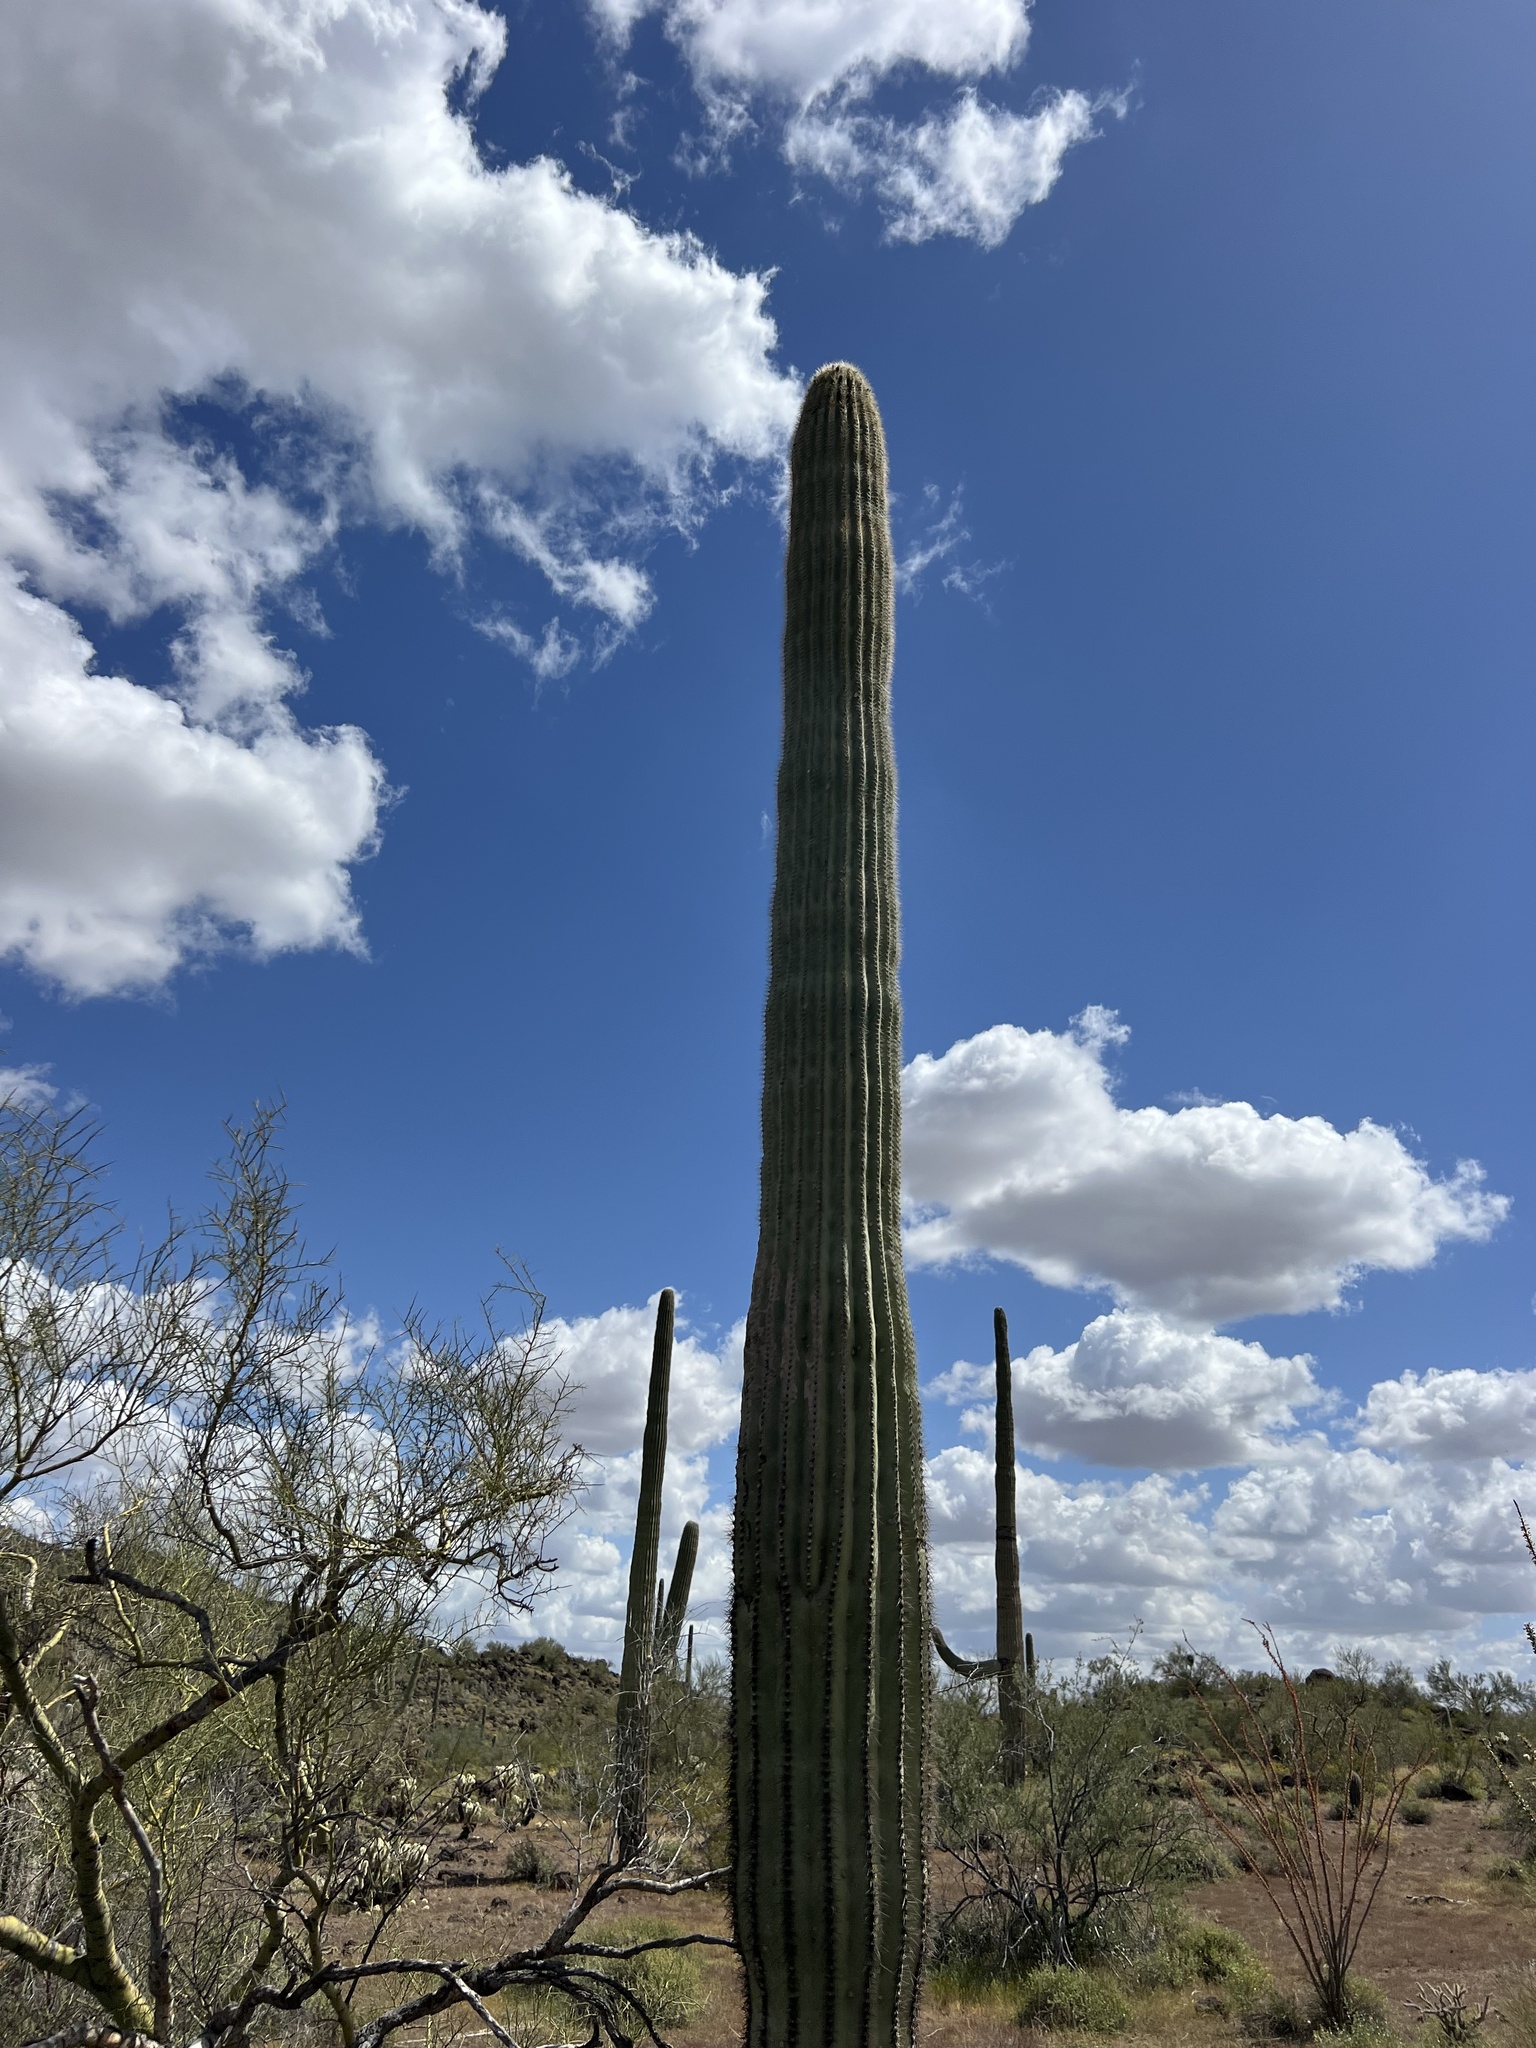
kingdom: Plantae
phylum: Tracheophyta
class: Magnoliopsida
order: Caryophyllales
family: Cactaceae
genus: Carnegiea
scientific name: Carnegiea gigantea
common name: Saguaro
